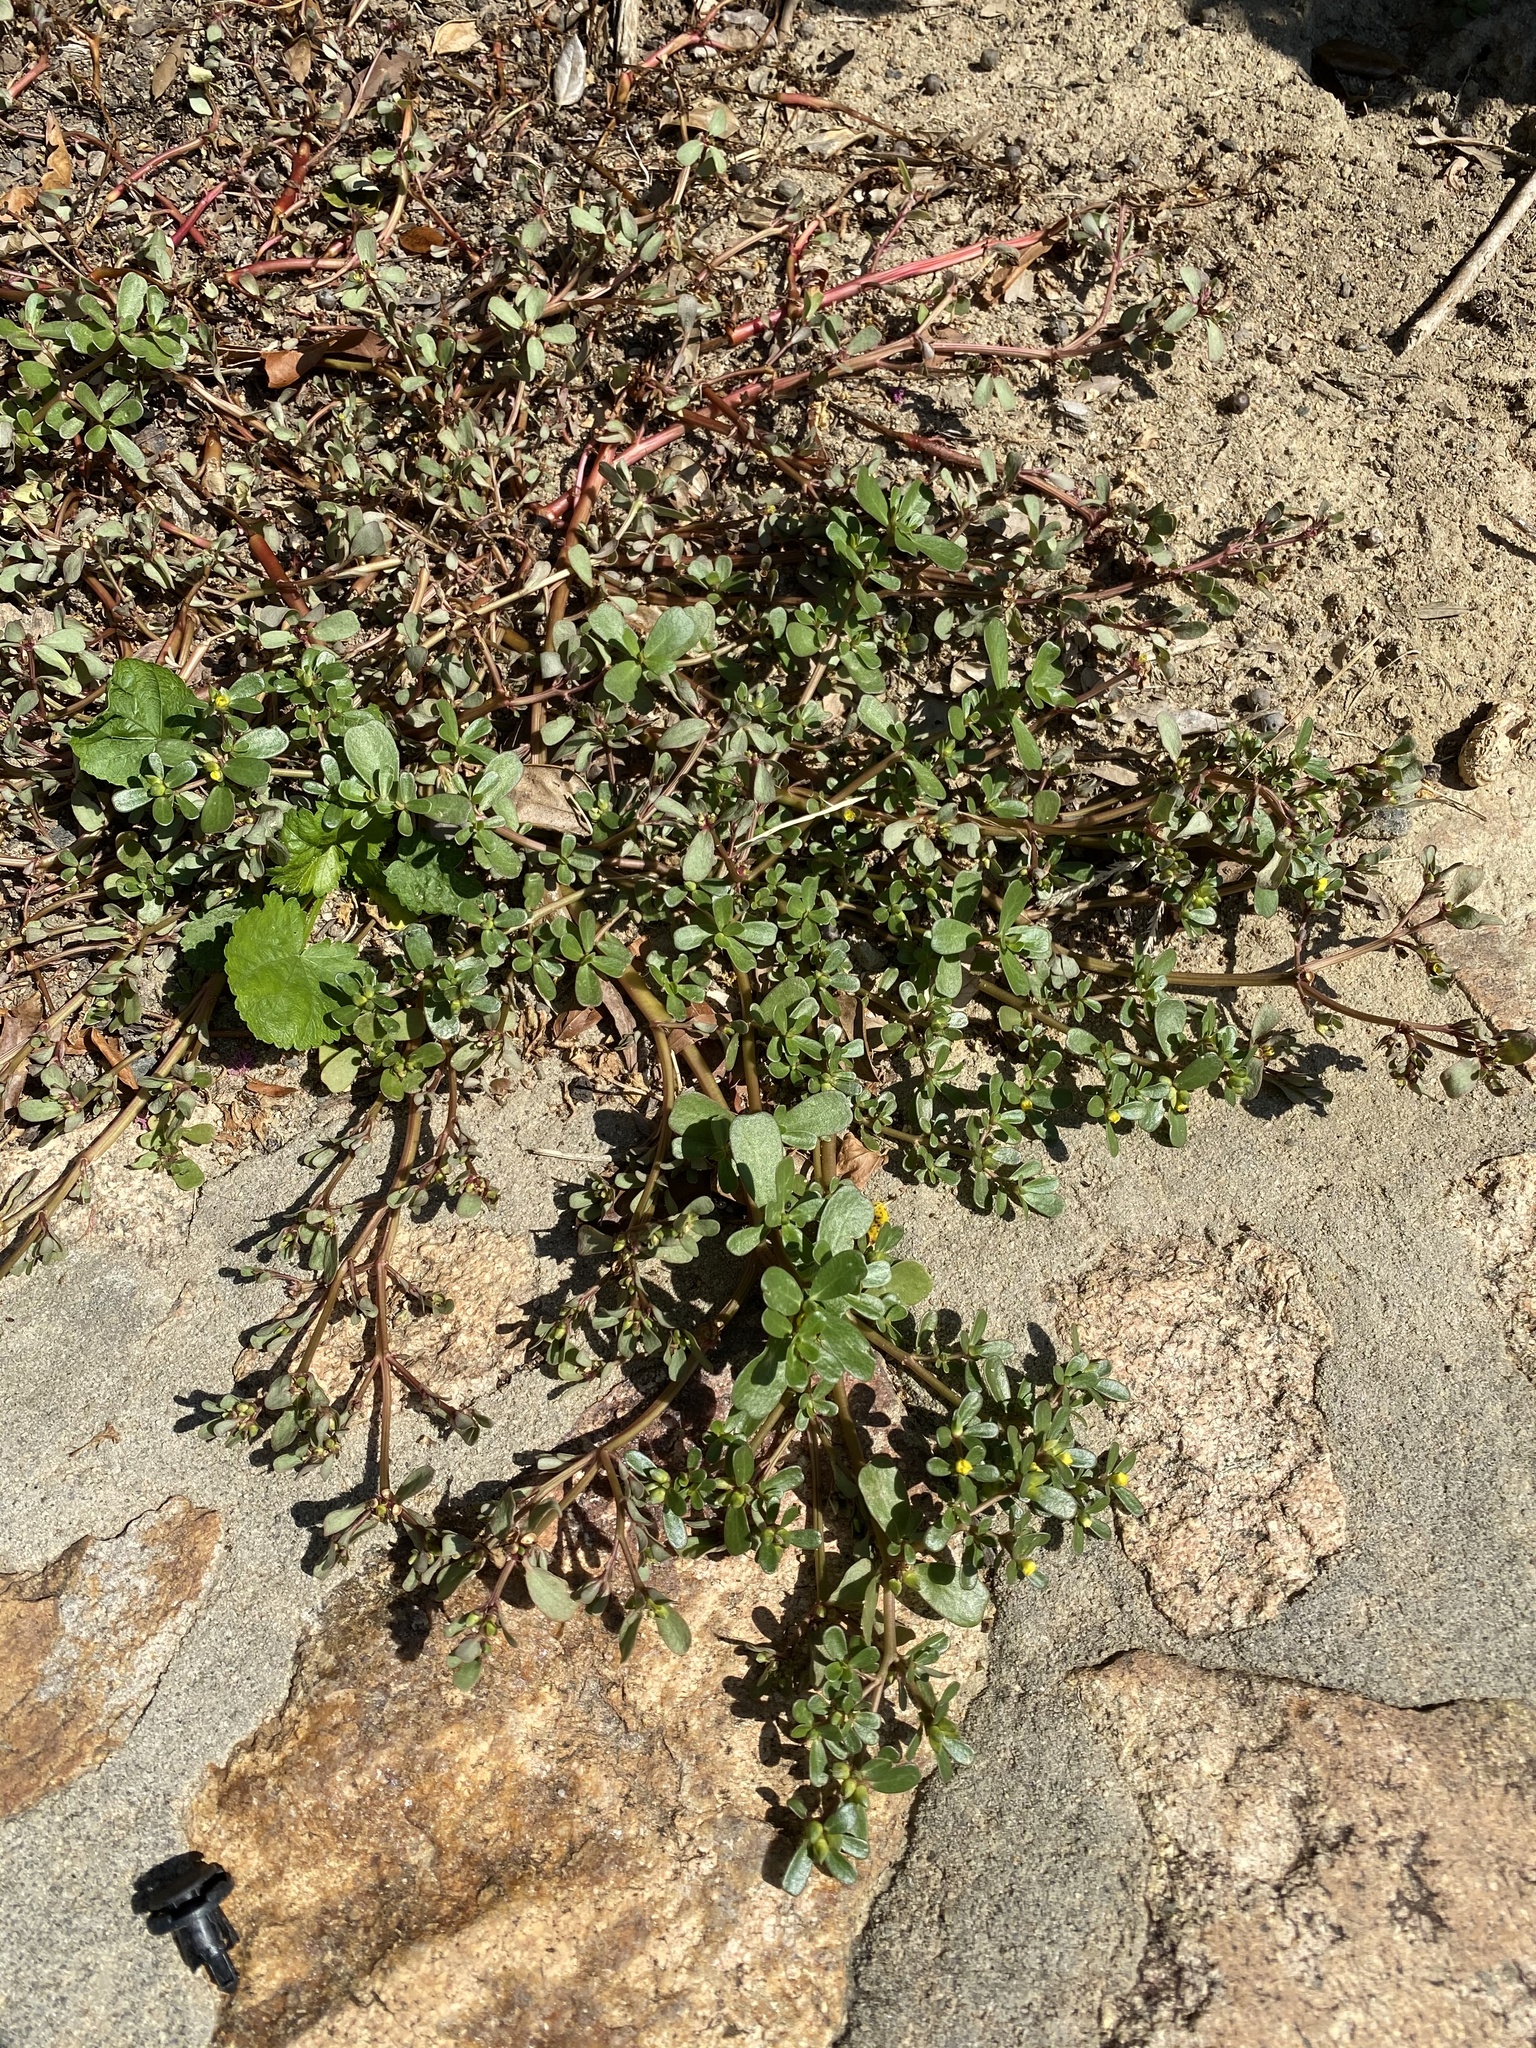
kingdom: Plantae
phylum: Tracheophyta
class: Magnoliopsida
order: Caryophyllales
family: Portulacaceae
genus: Portulaca
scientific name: Portulaca oleracea
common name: Common purslane
